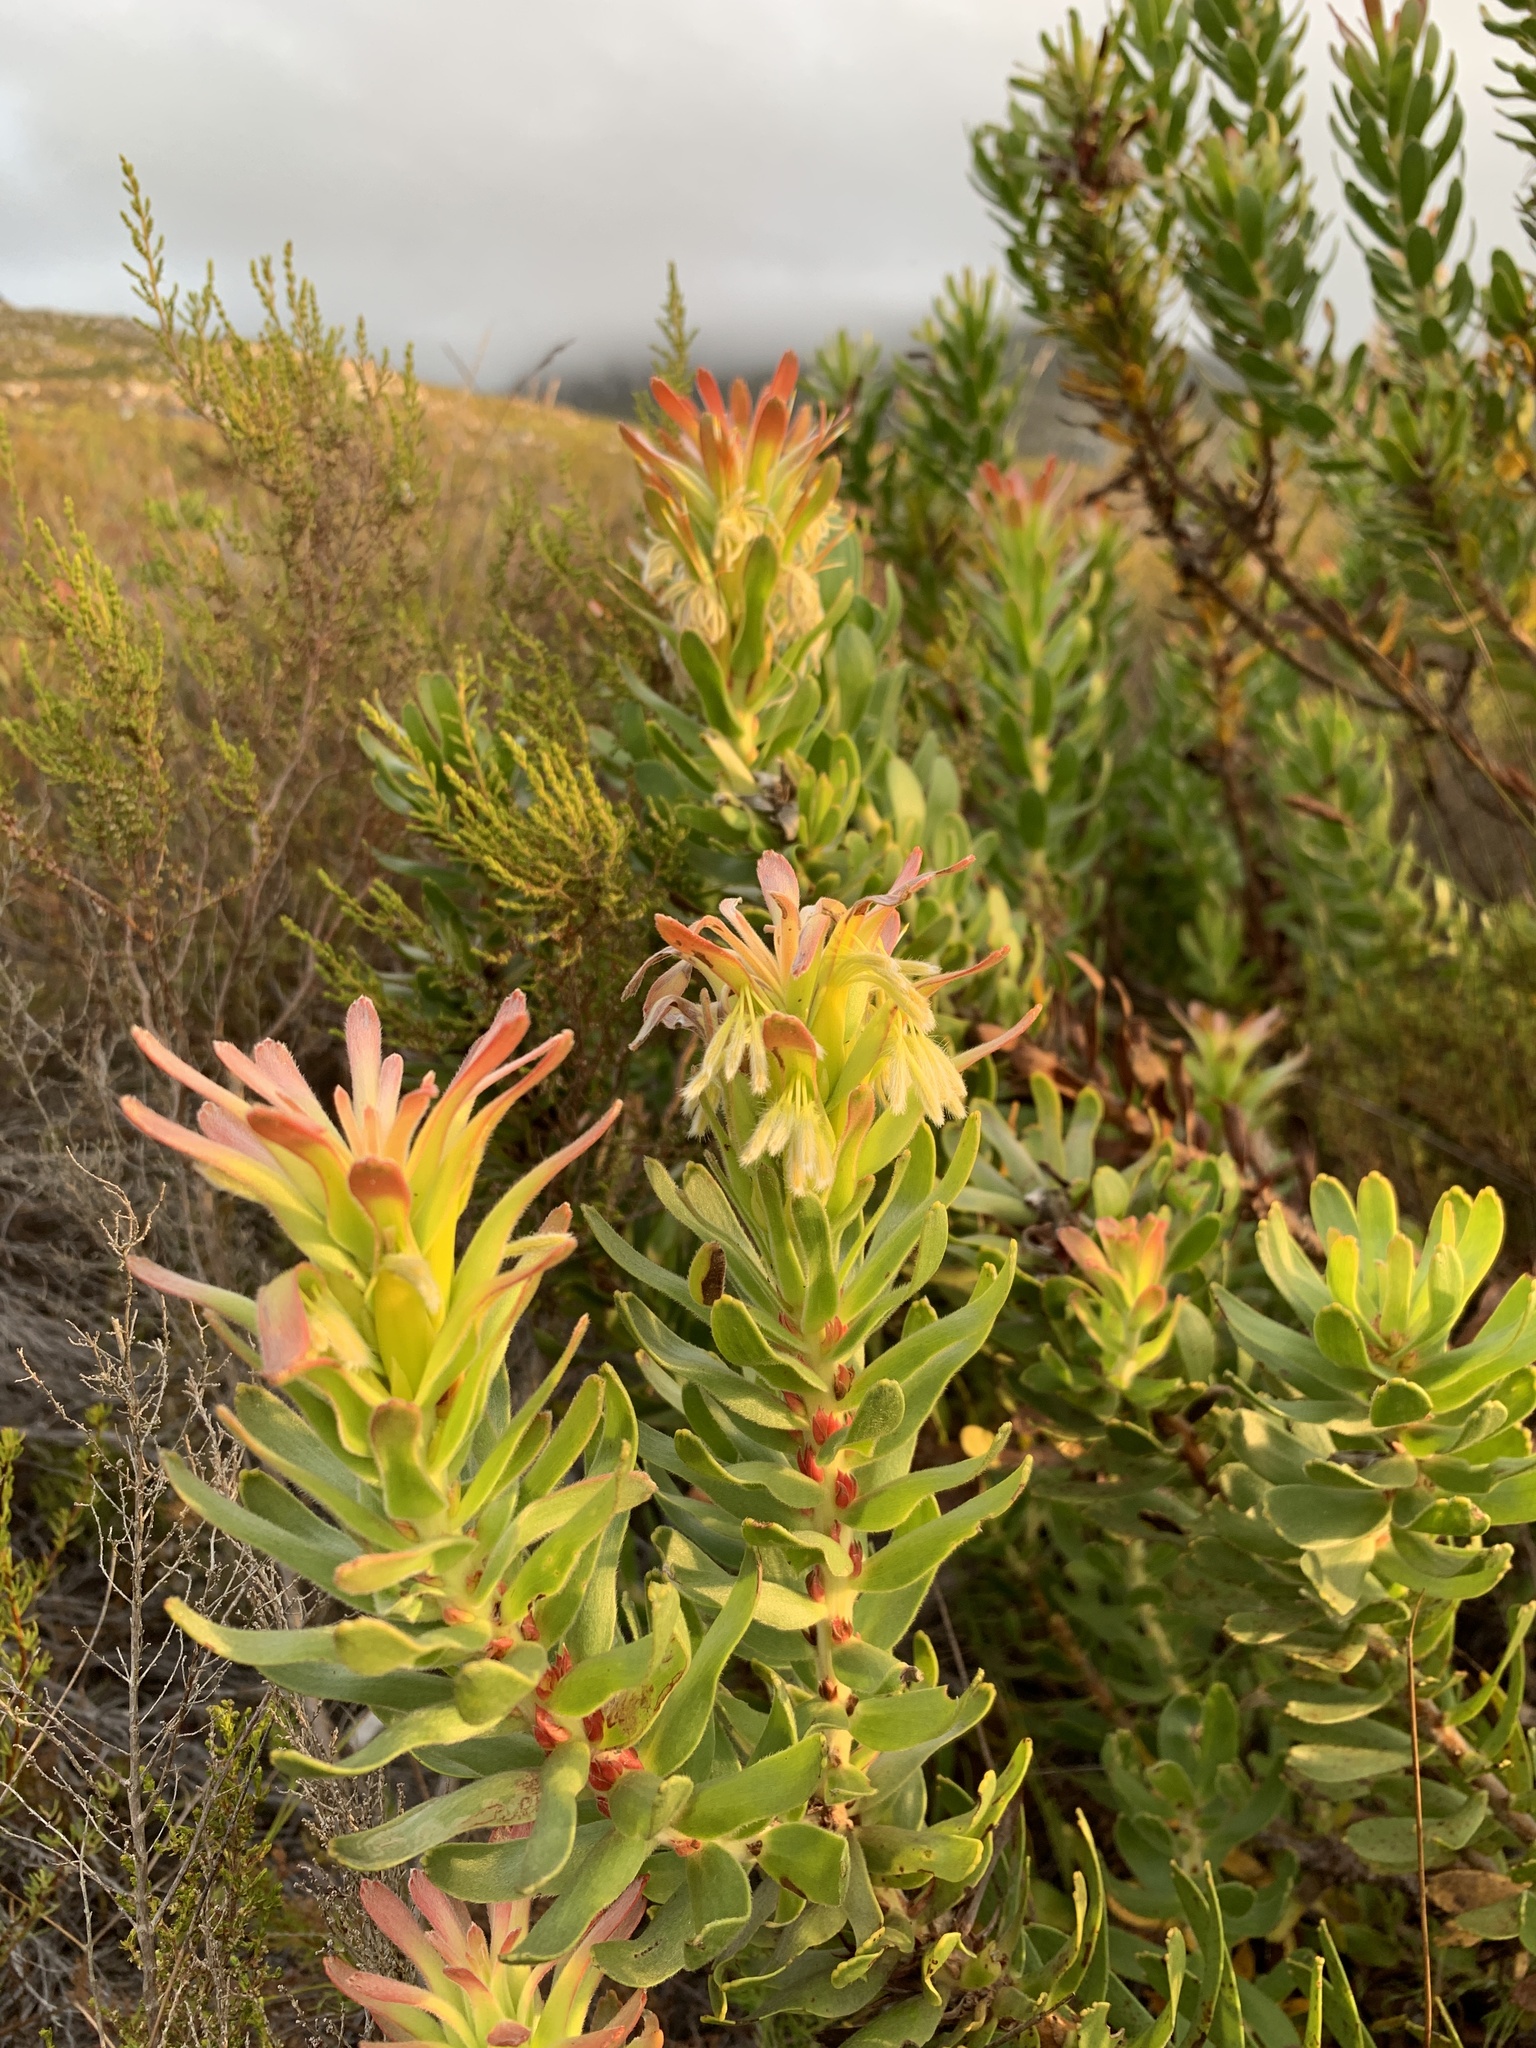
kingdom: Plantae
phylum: Tracheophyta
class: Magnoliopsida
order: Proteales
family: Proteaceae
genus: Mimetes
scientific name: Mimetes cucullatus
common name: Common pagoda
